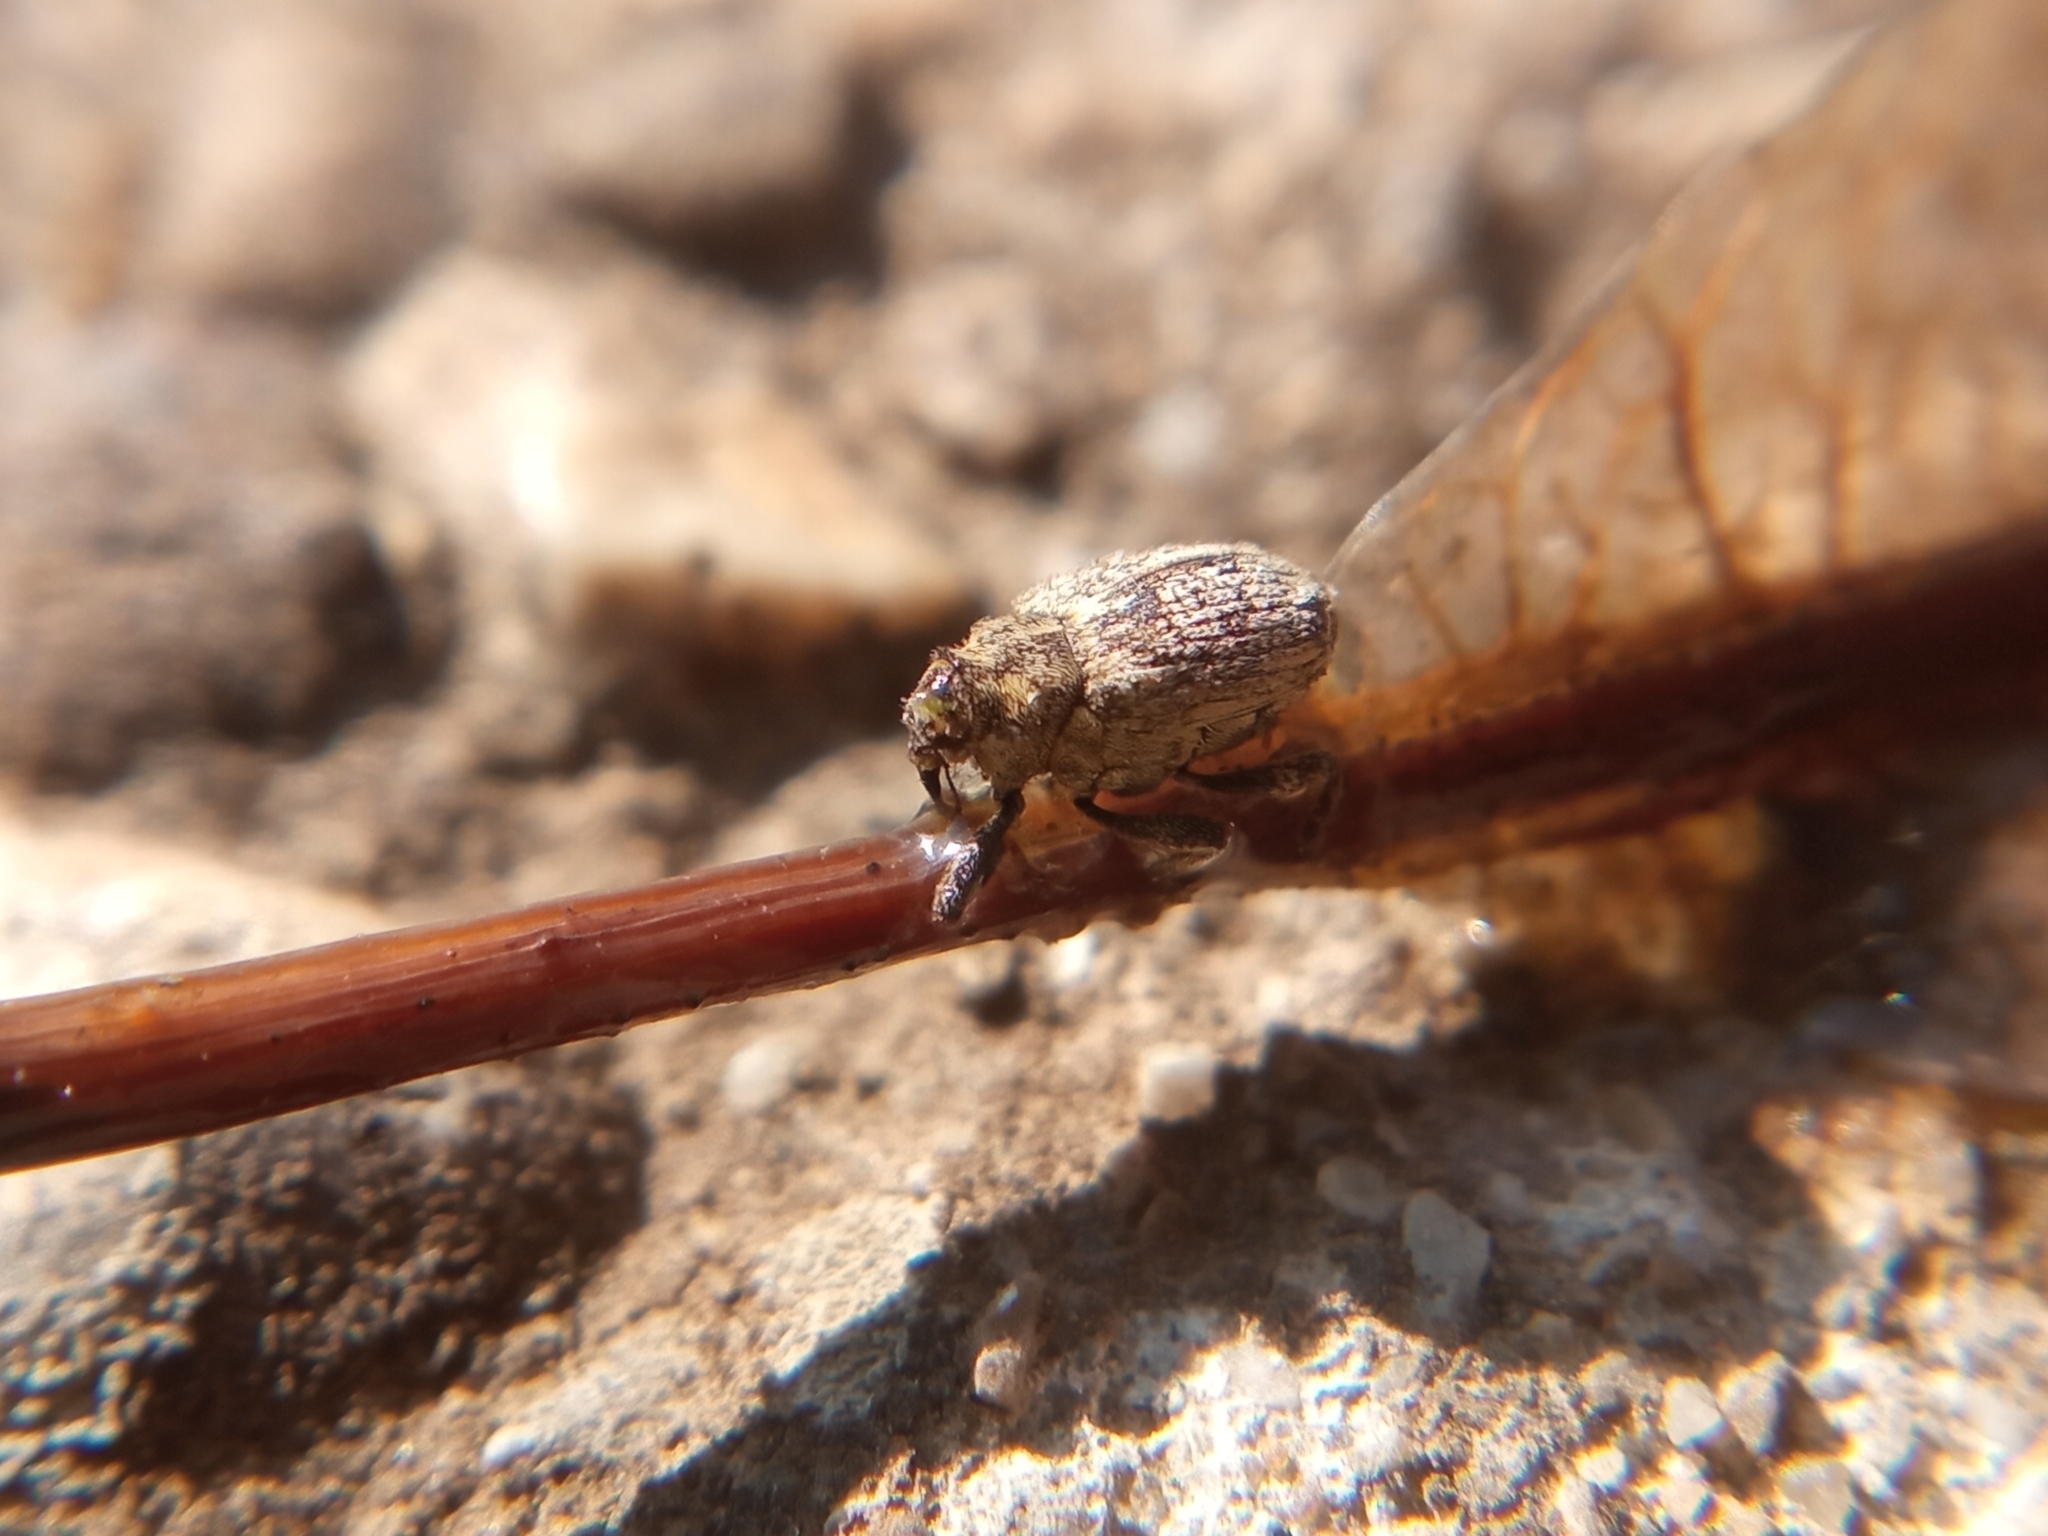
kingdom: Animalia
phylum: Arthropoda
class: Insecta
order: Coleoptera
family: Curculionidae
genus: Ceutorhynchus
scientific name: Ceutorhynchus pallidactylus
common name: Cabbage stem weavil
